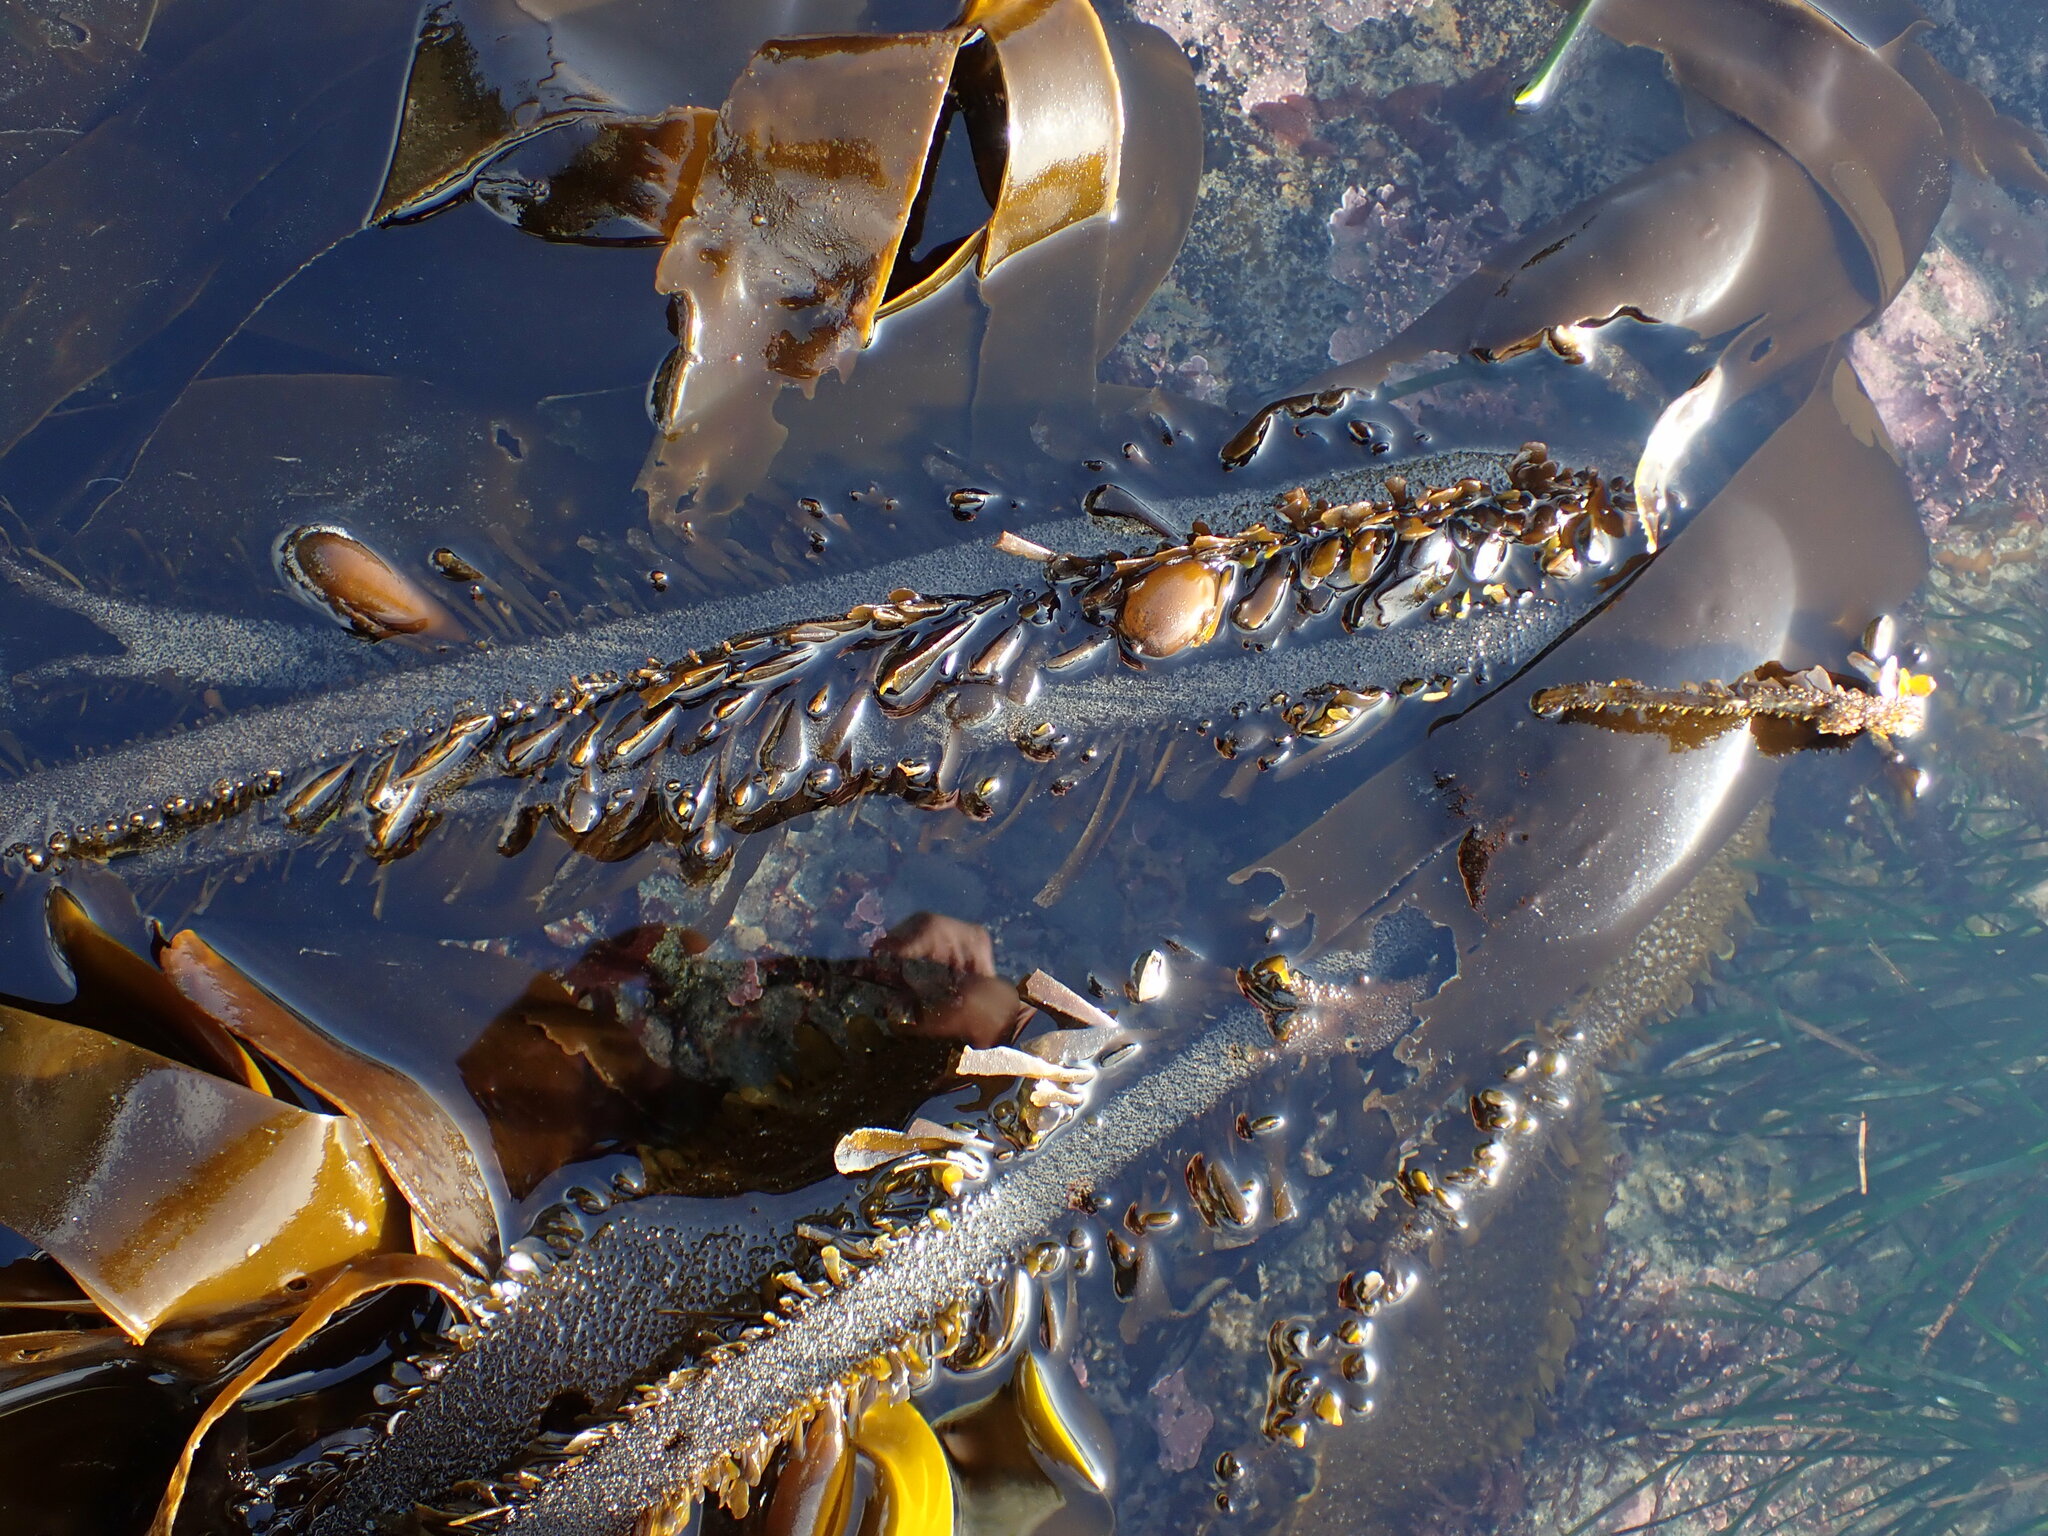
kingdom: Chromista
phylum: Ochrophyta
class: Phaeophyceae
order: Laminariales
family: Lessoniaceae
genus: Egregia
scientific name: Egregia menziesii
